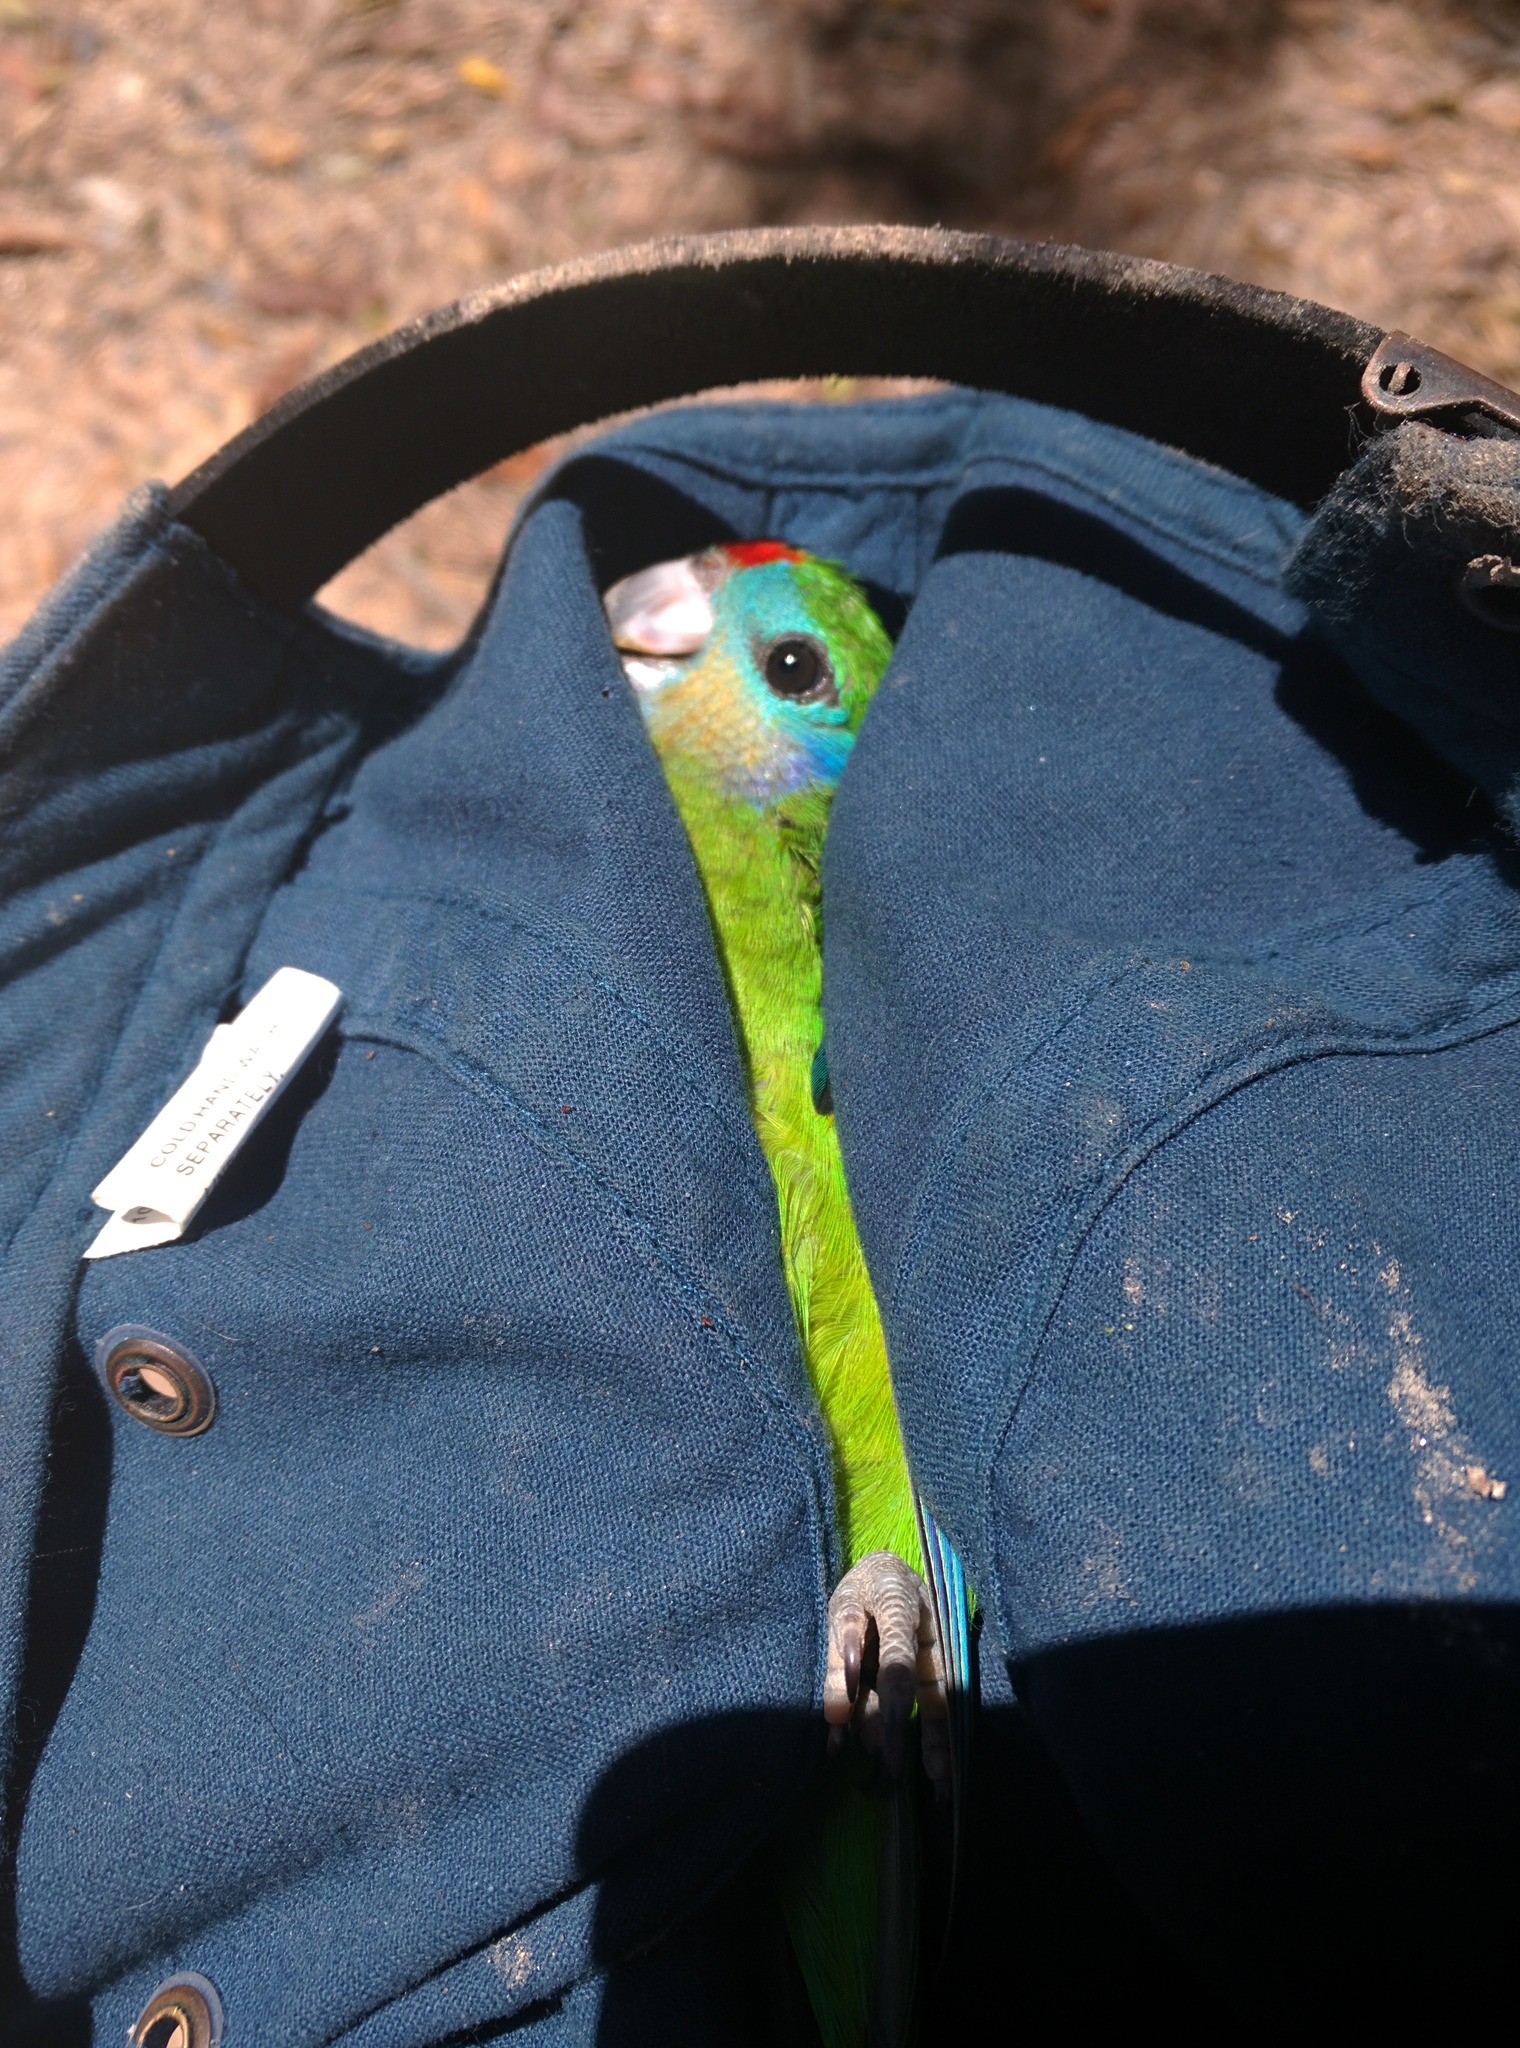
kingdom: Animalia
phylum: Chordata
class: Aves
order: Psittaciformes
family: Psittacidae
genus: Cyclopsitta
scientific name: Cyclopsitta diophthalma
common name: Double-eyed fig parrot
